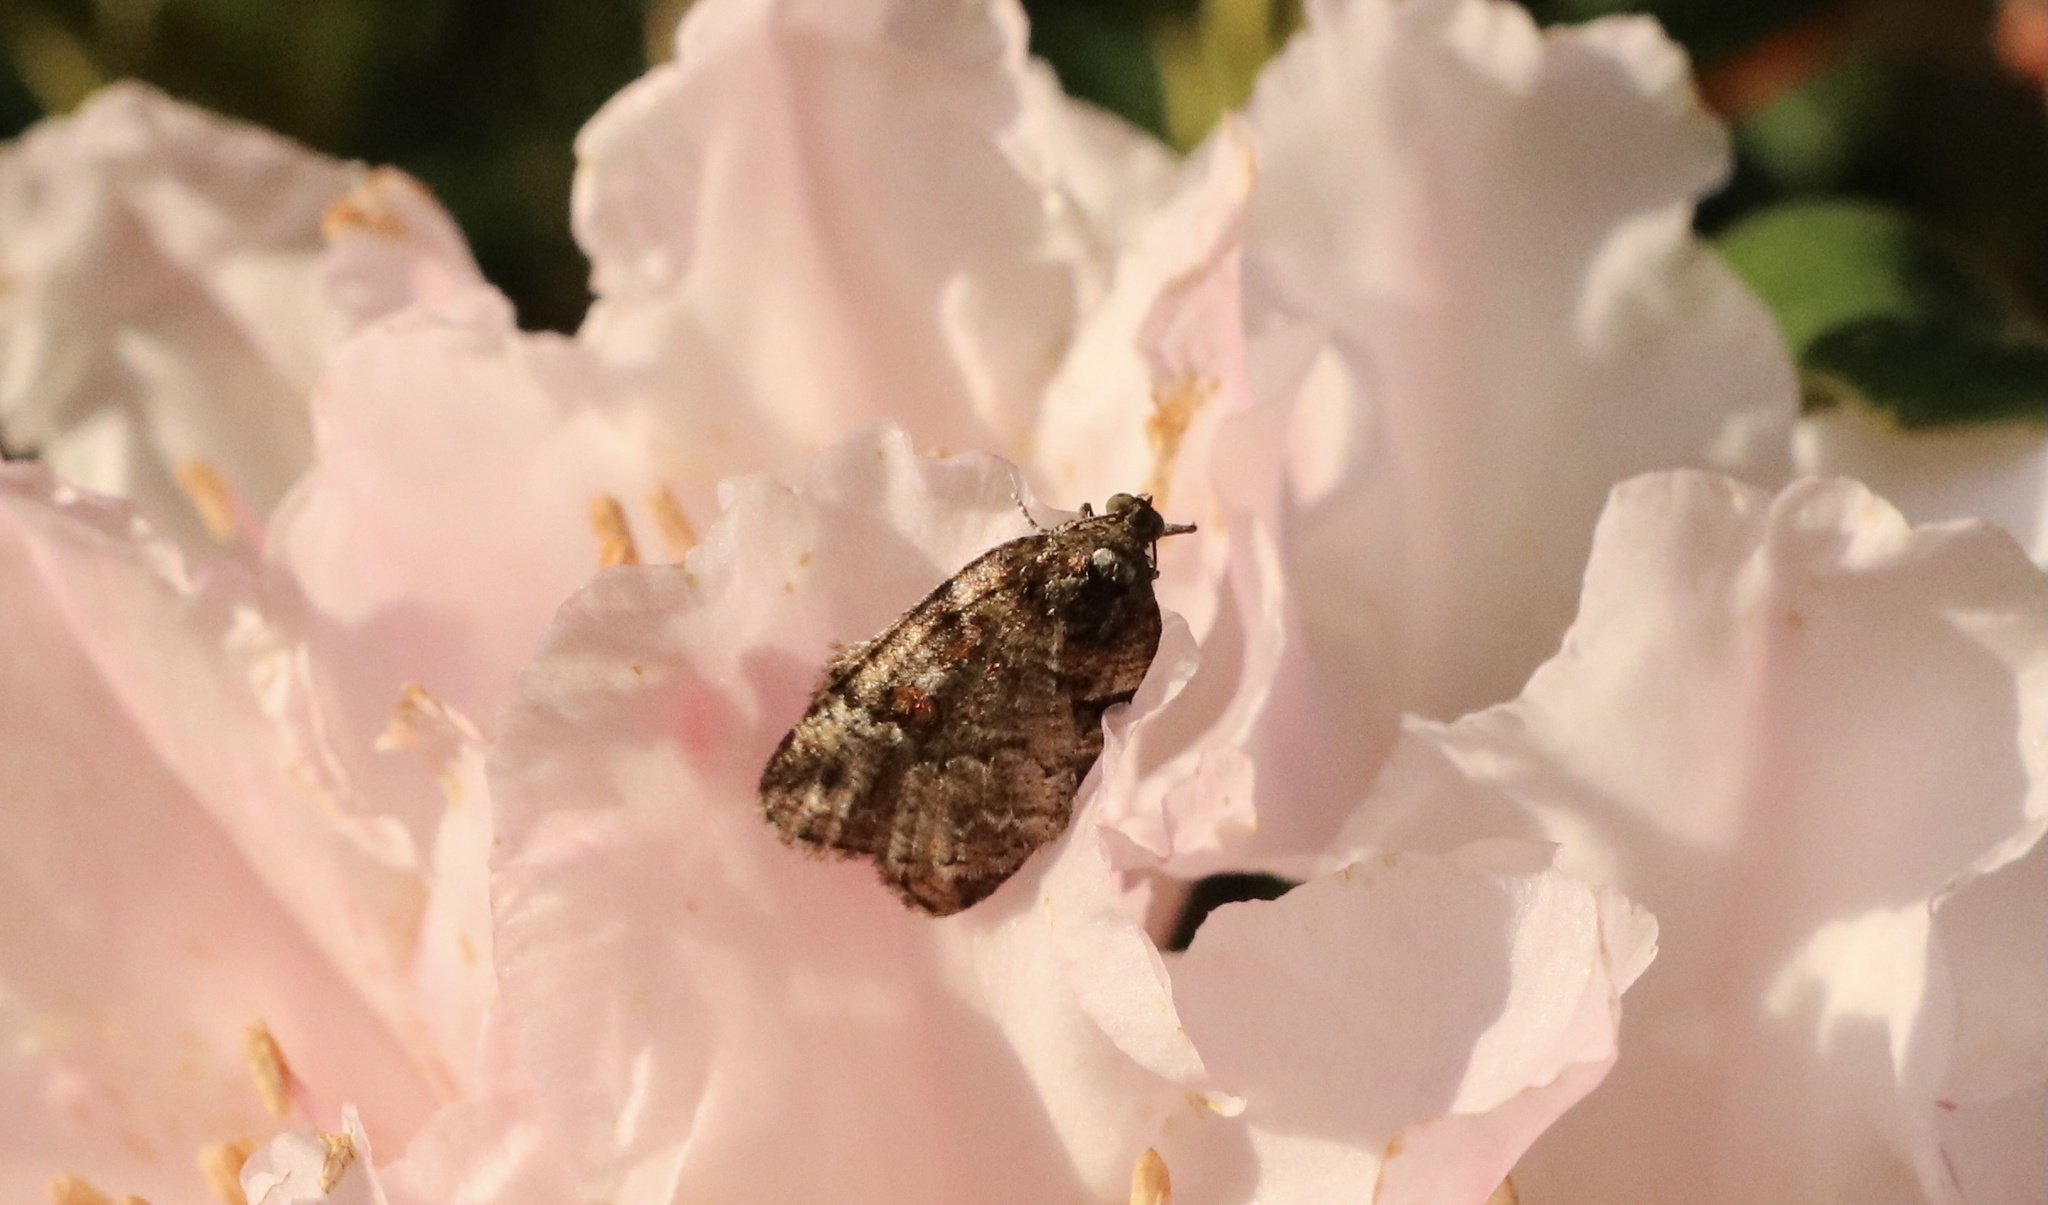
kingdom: Animalia
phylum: Arthropoda
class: Insecta
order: Lepidoptera
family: Geometridae
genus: Lacaria
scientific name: Lacaria orfilai
